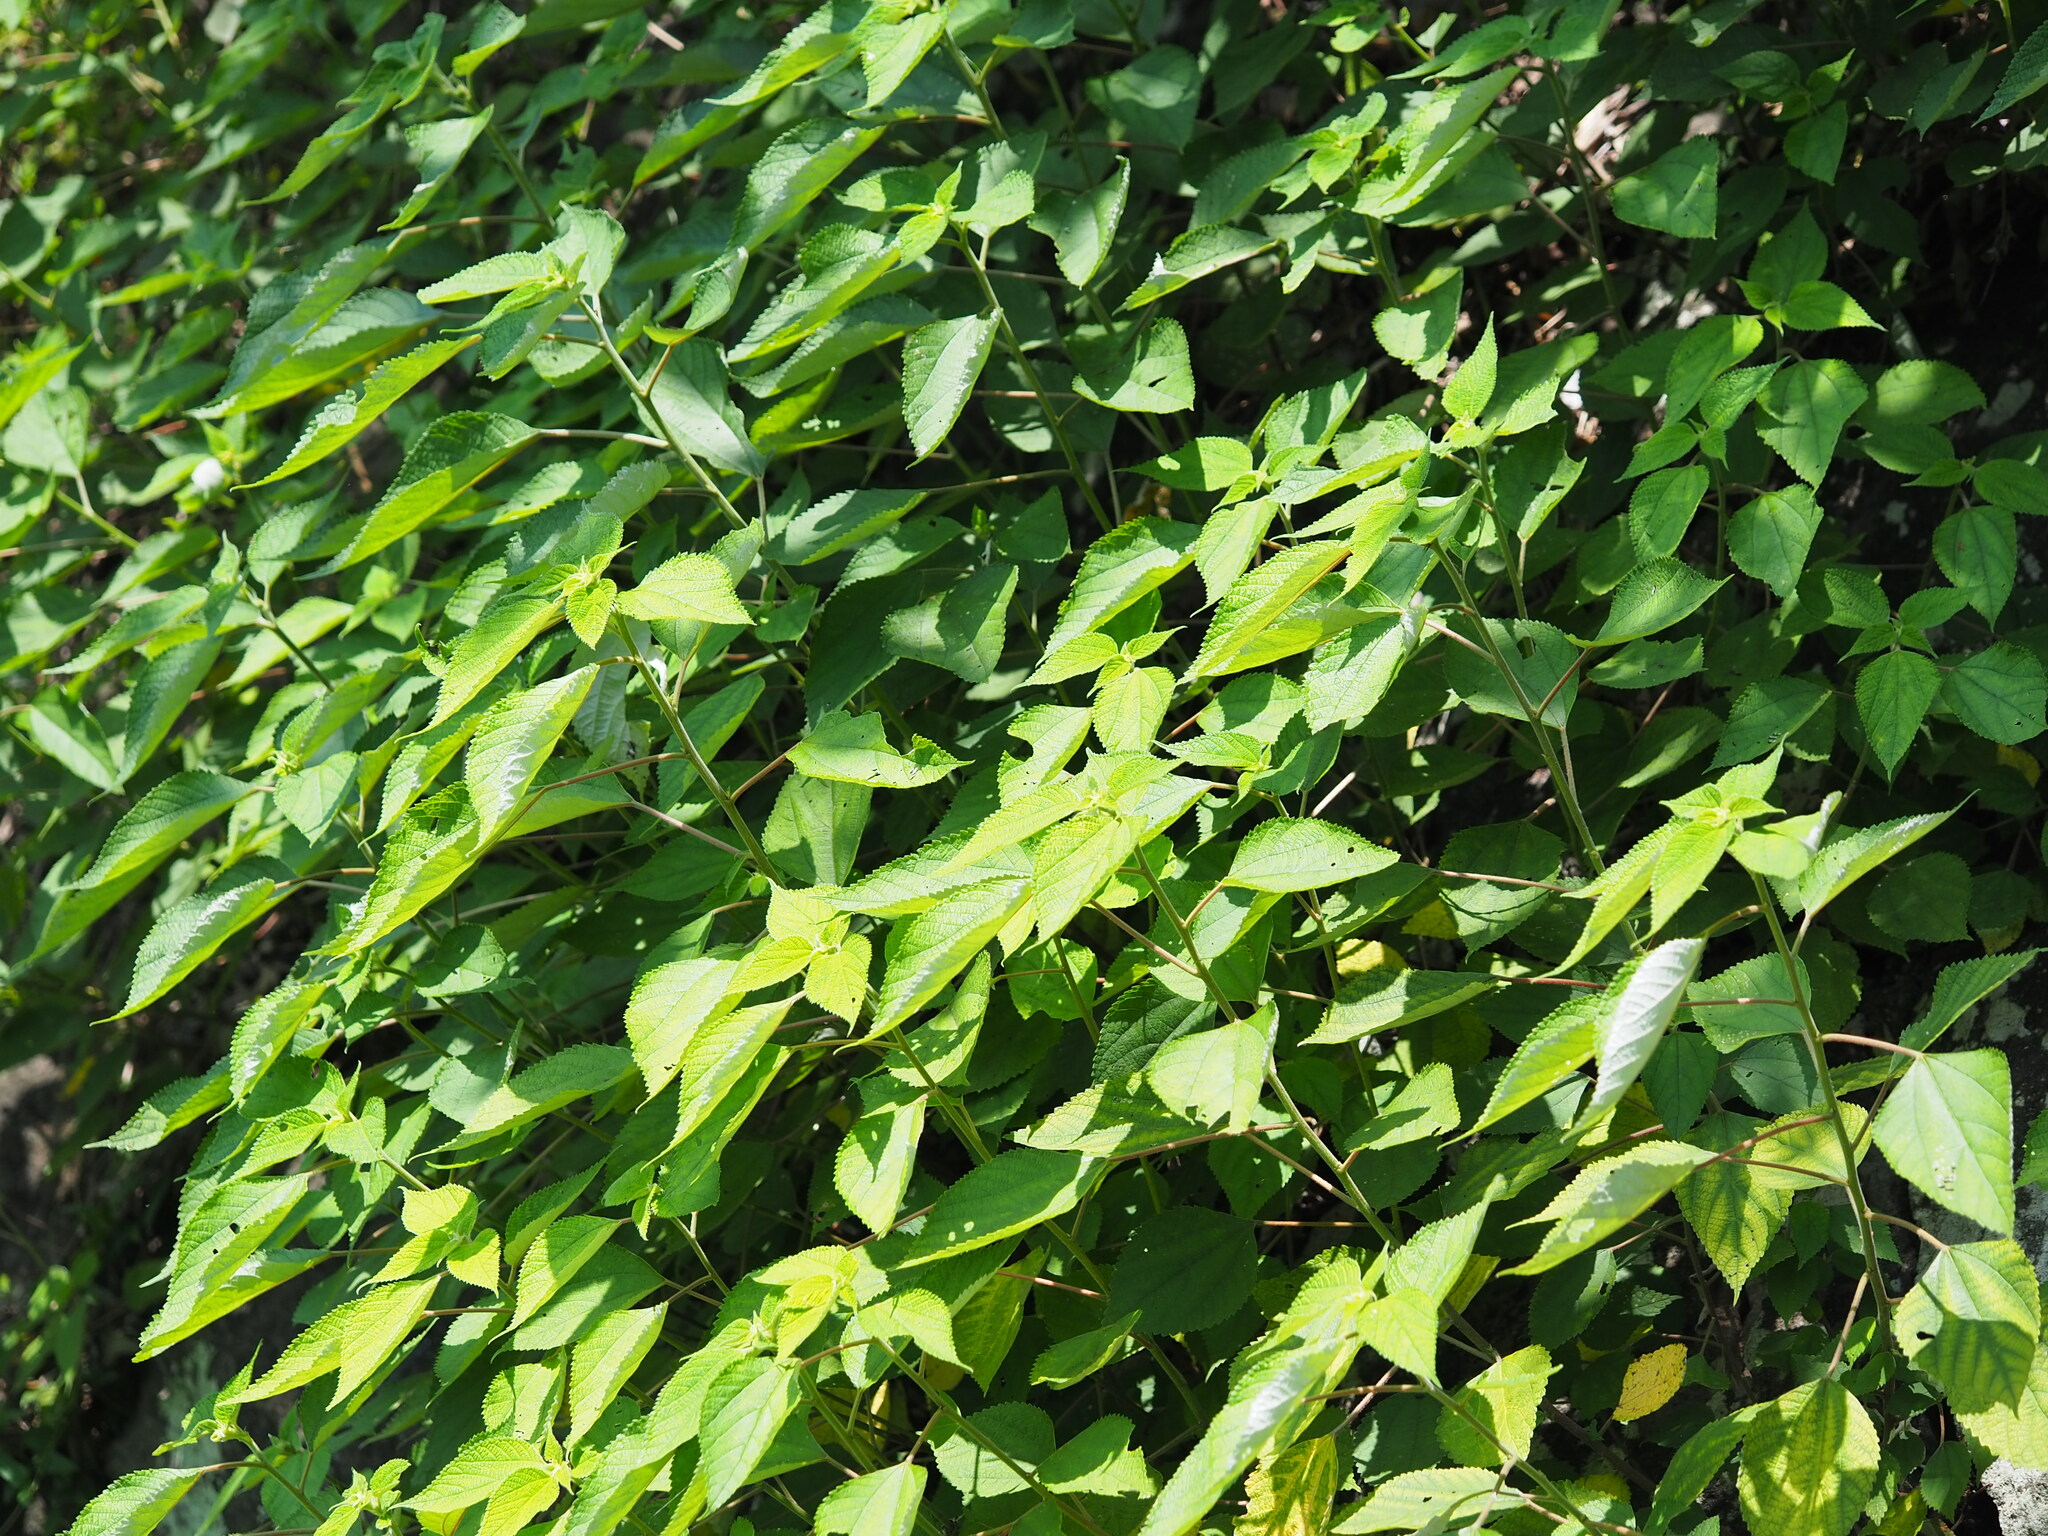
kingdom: Plantae
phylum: Tracheophyta
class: Magnoliopsida
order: Rosales
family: Urticaceae
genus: Boehmeria
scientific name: Boehmeria nivea
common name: Ramie chinese grass
